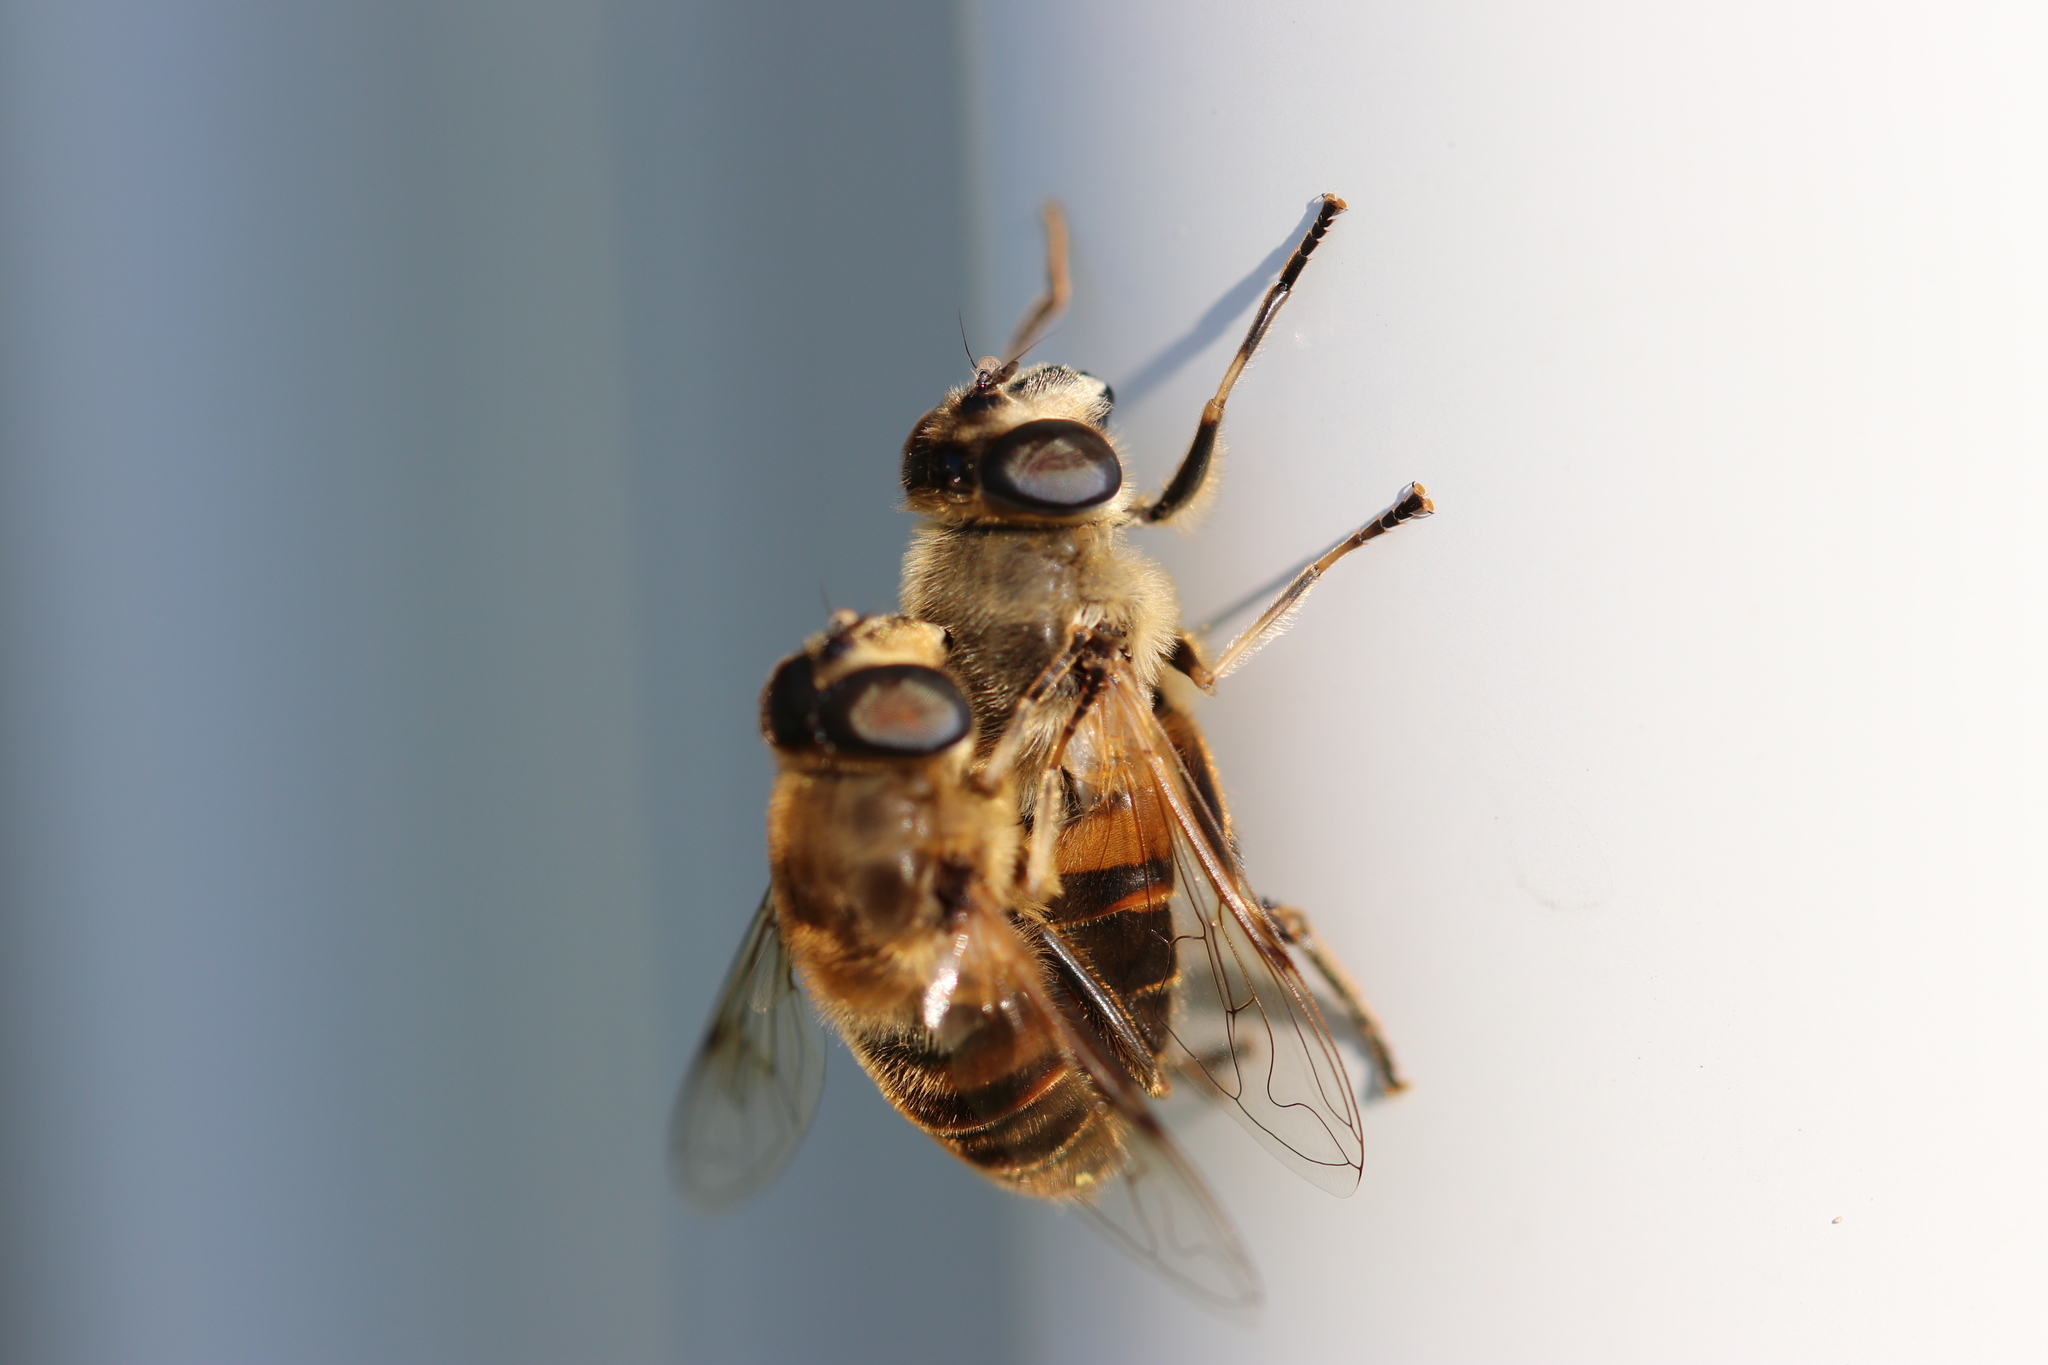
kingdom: Animalia
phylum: Arthropoda
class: Insecta
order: Diptera
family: Syrphidae
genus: Eristalis
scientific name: Eristalis tenax
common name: Drone fly
